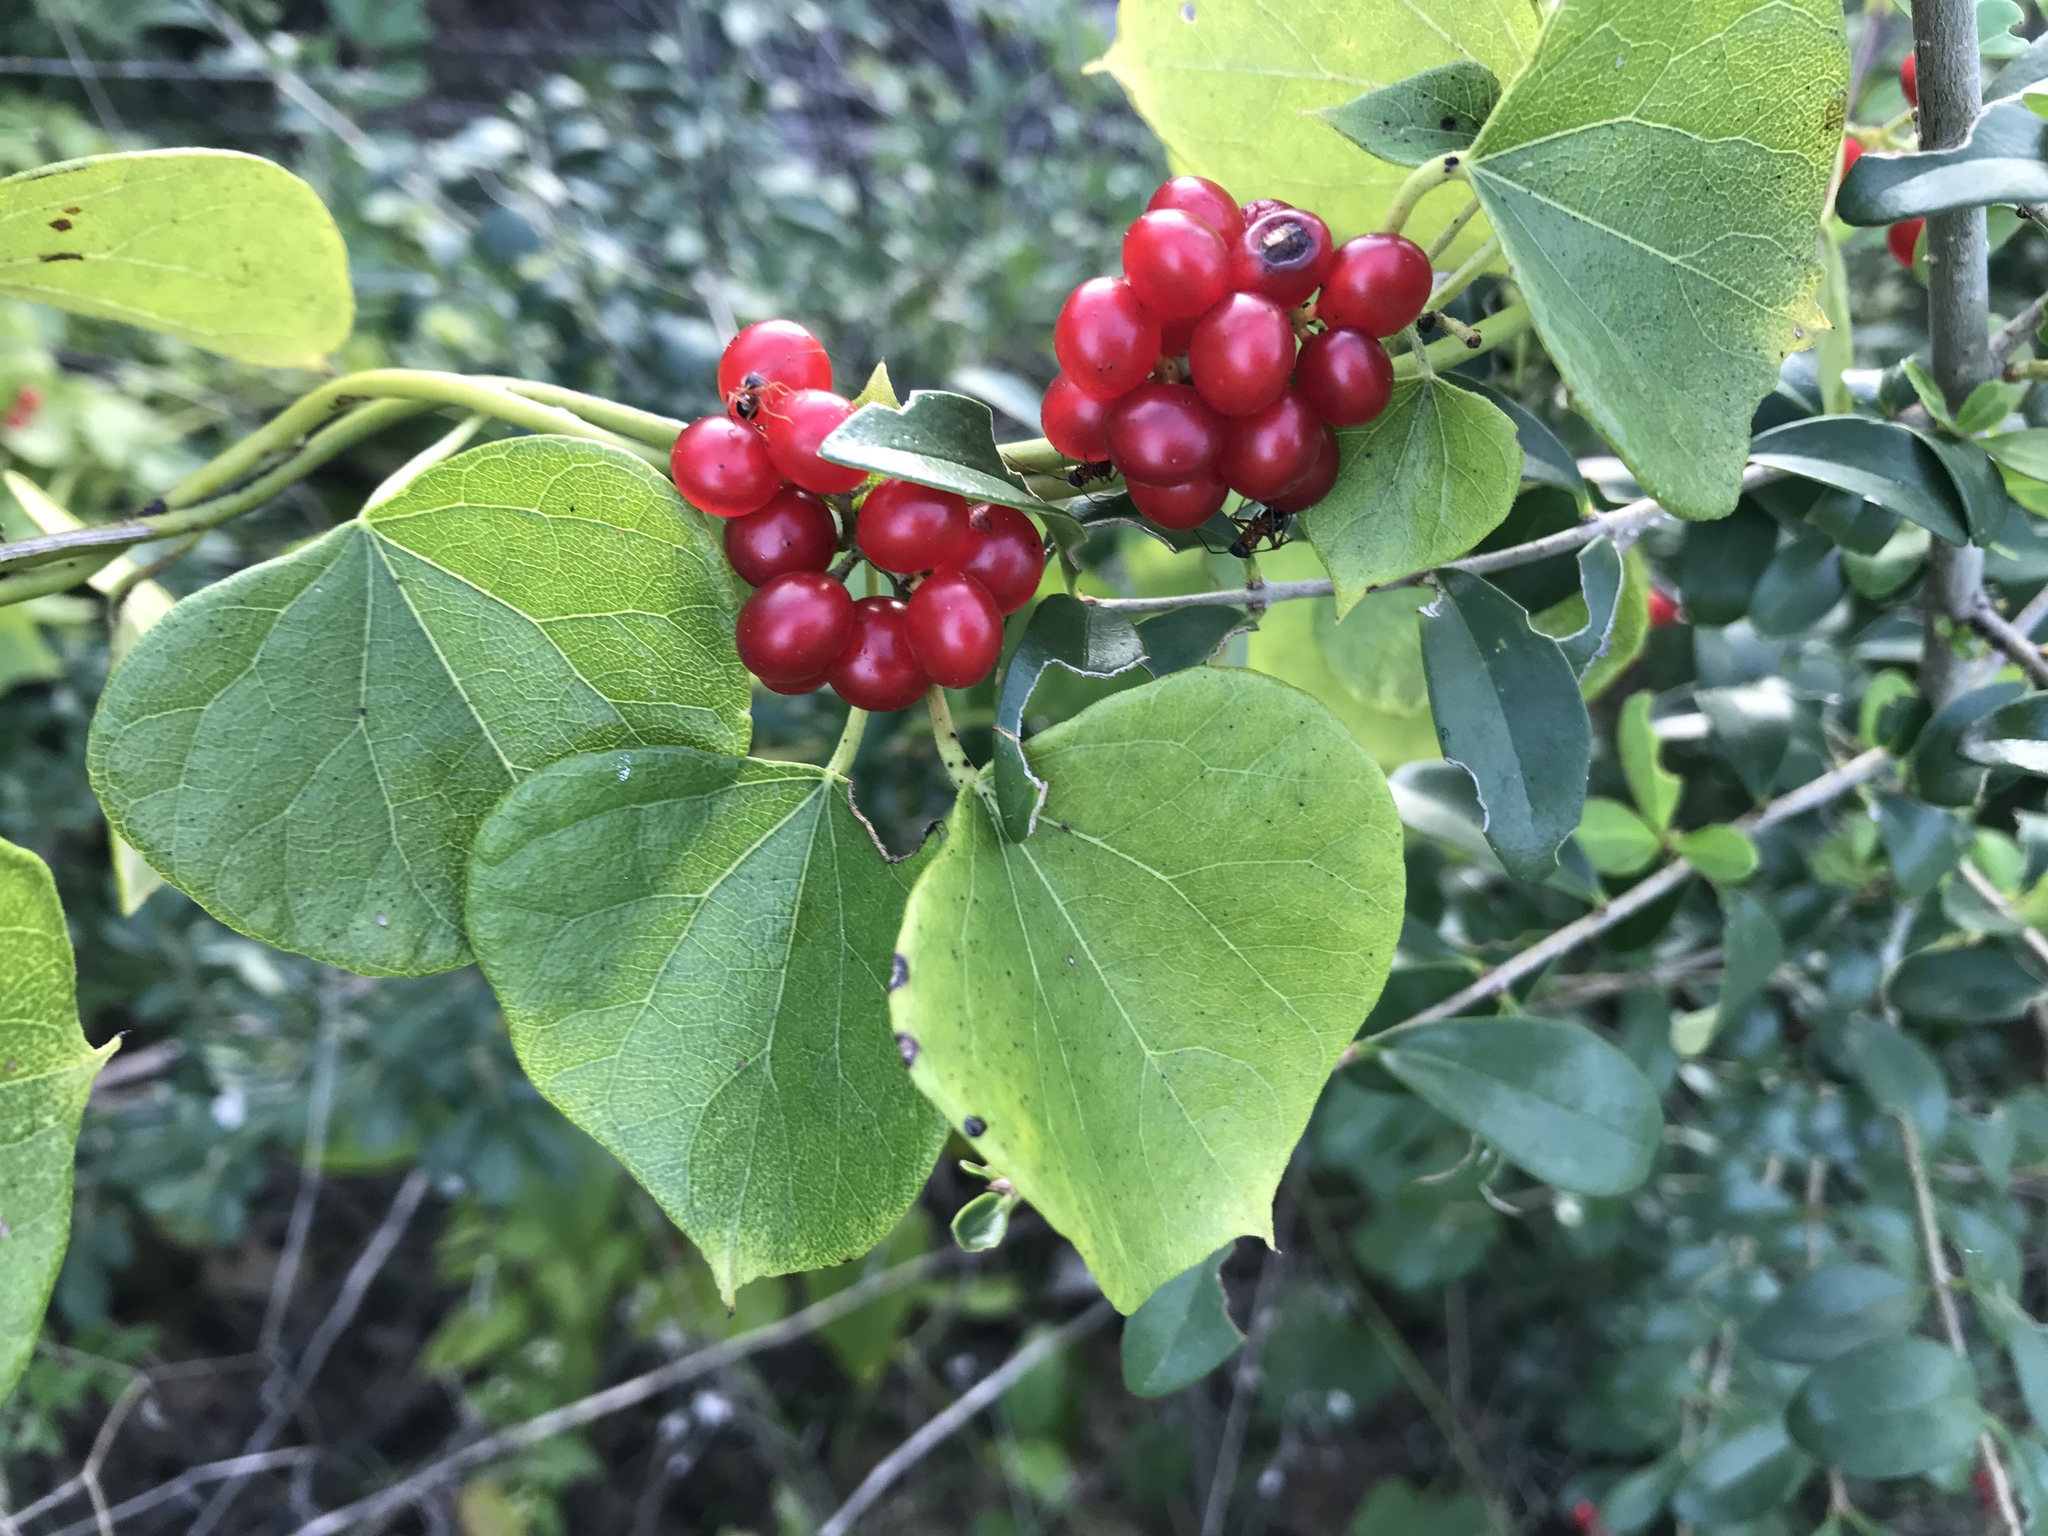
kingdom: Plantae
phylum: Tracheophyta
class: Magnoliopsida
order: Ranunculales
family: Menispermaceae
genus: Cocculus
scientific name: Cocculus carolinus
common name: Carolina moonseed
